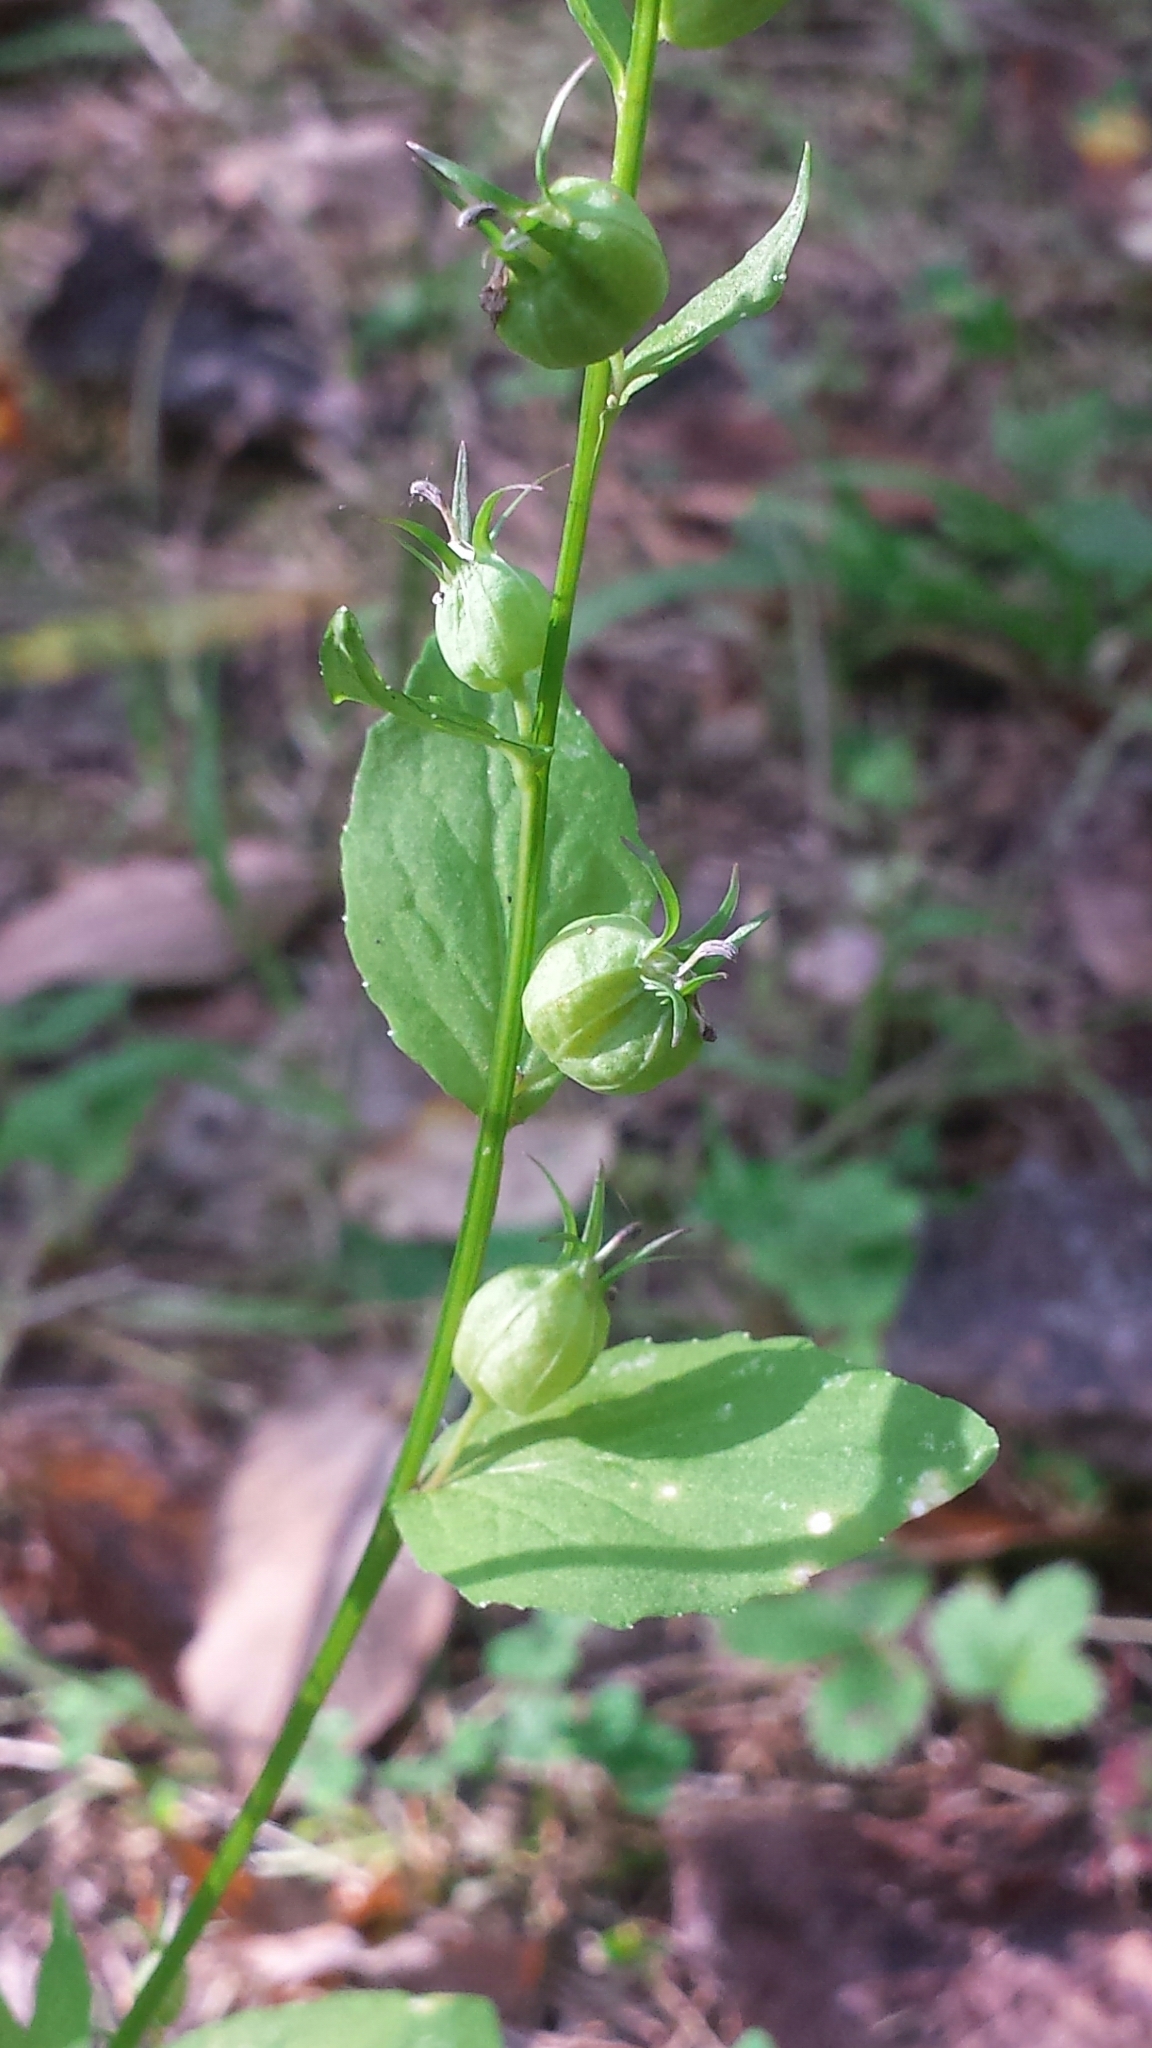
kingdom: Plantae
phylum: Tracheophyta
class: Magnoliopsida
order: Asterales
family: Campanulaceae
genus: Lobelia
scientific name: Lobelia inflata
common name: Indian tobacco
